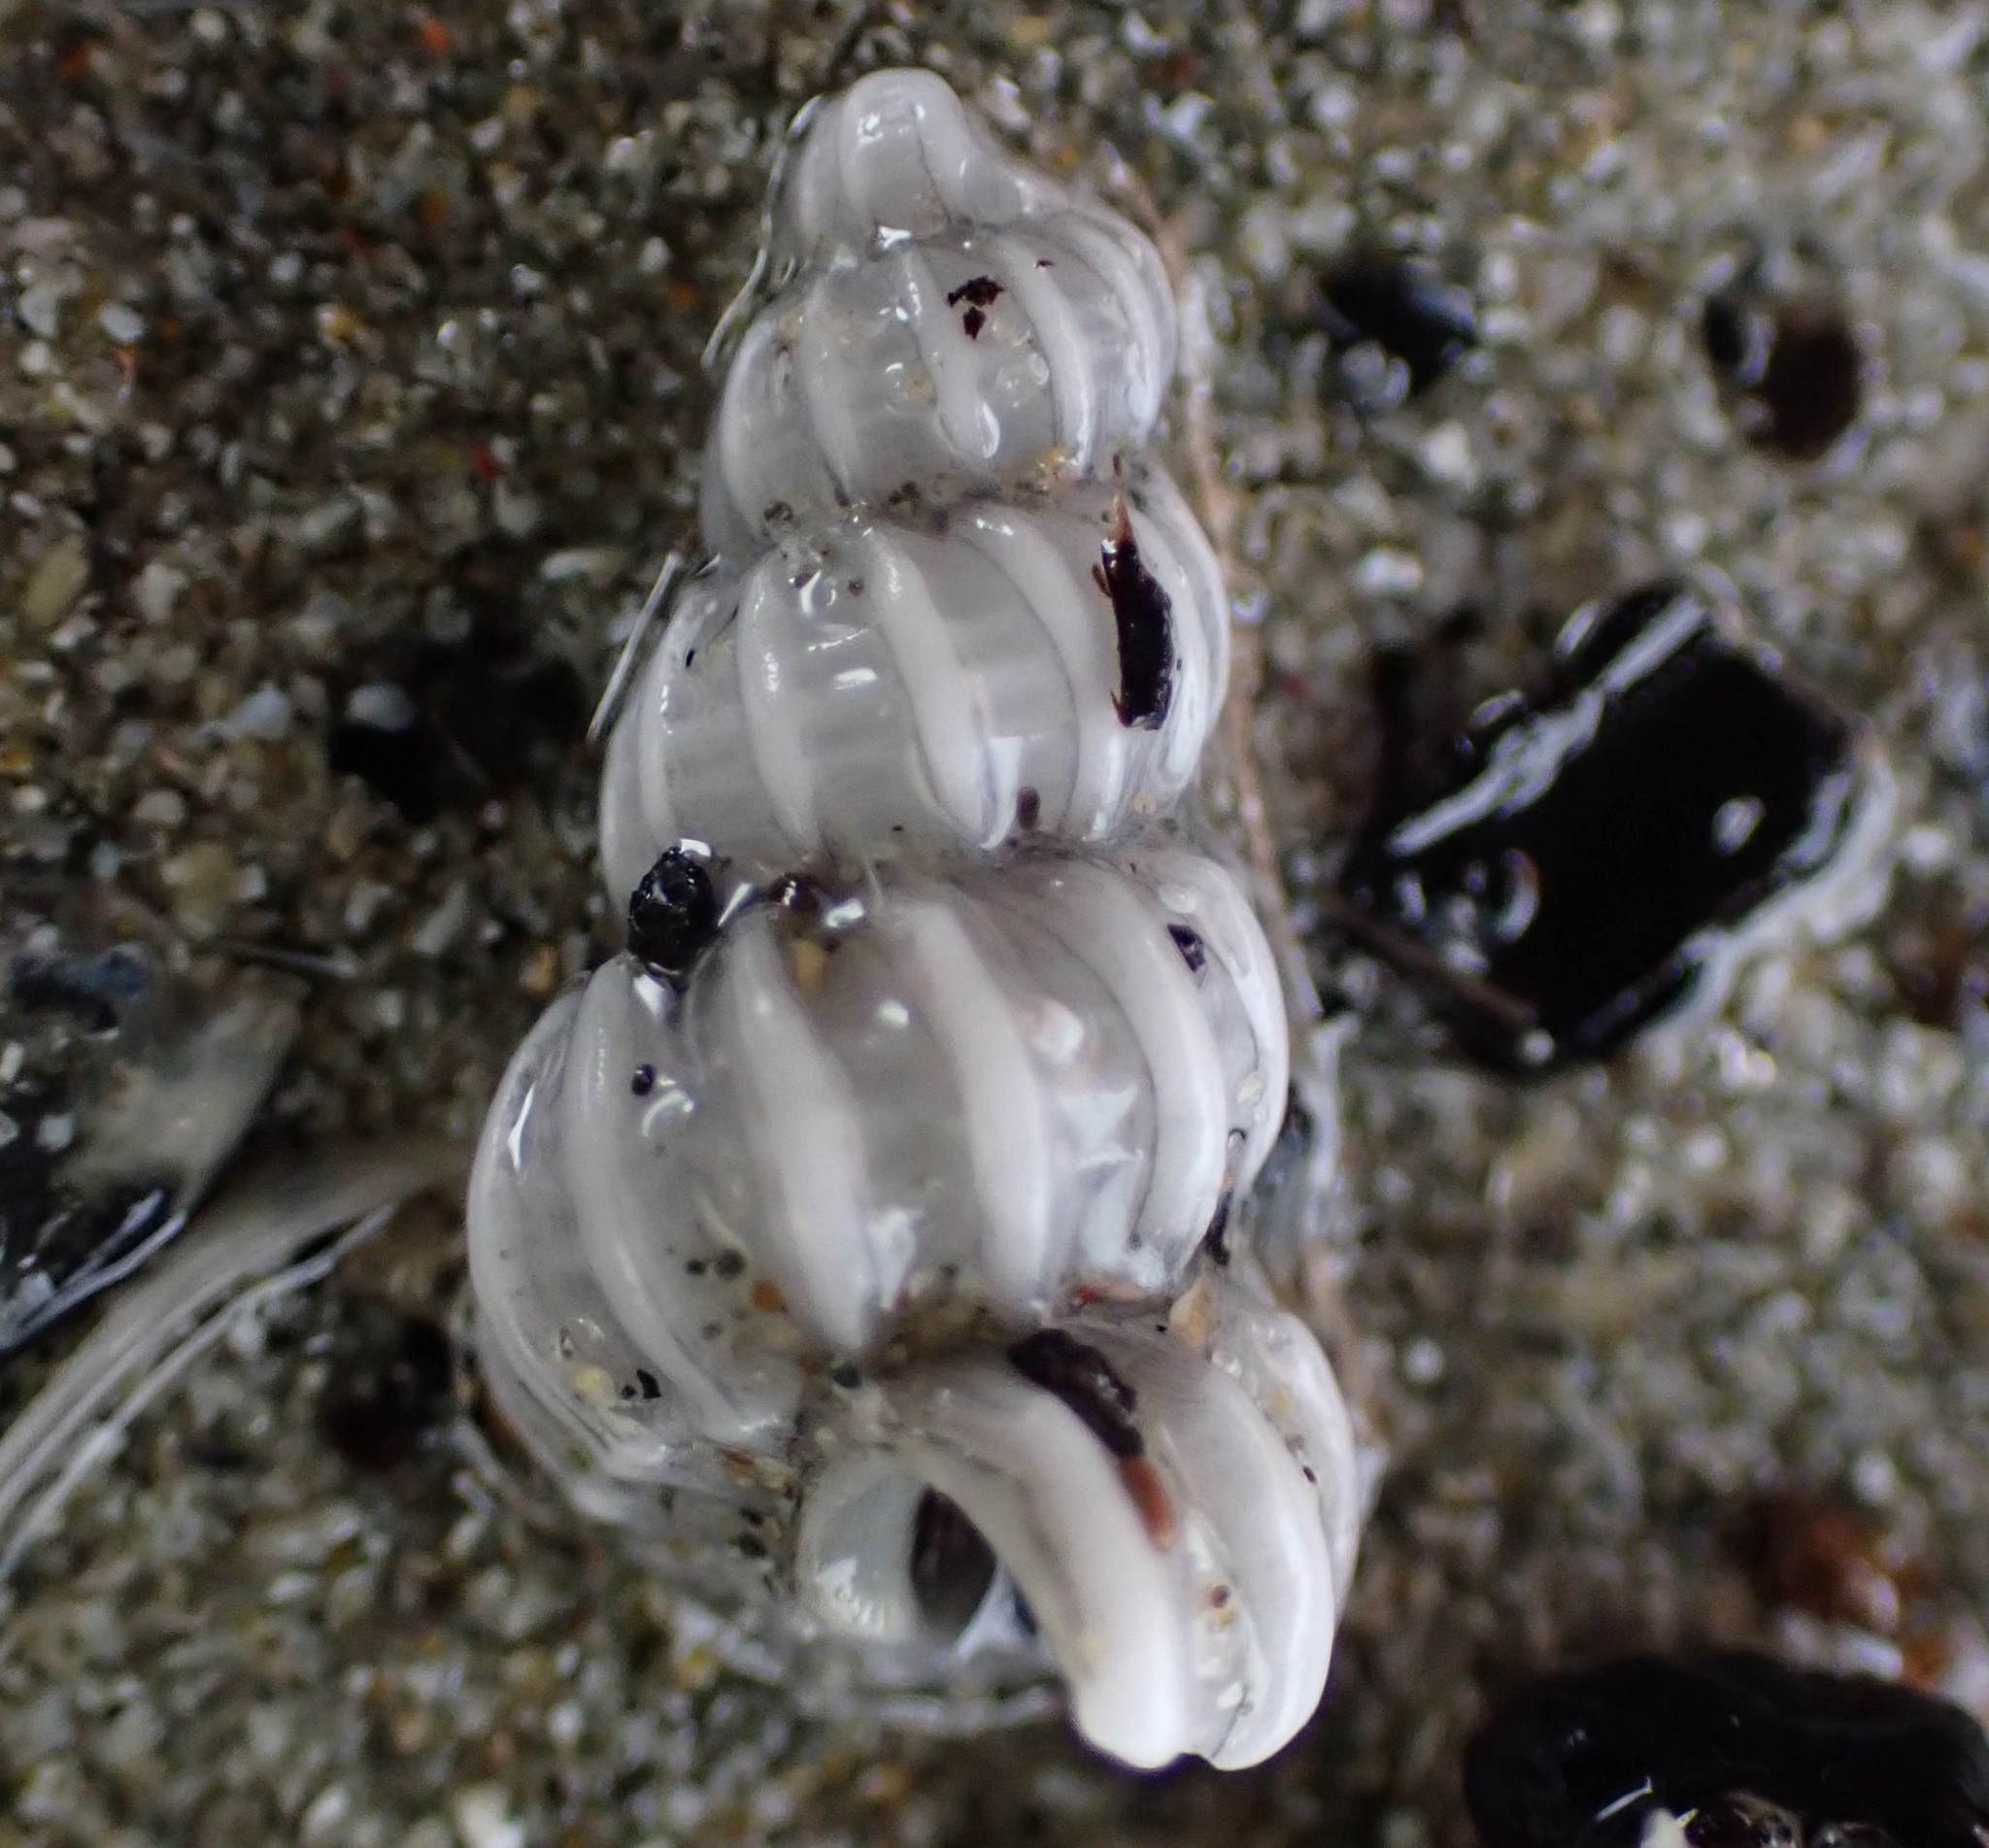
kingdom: Animalia
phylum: Mollusca
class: Gastropoda
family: Epitoniidae
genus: Cirsotrema
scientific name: Cirsotrema zelebori
